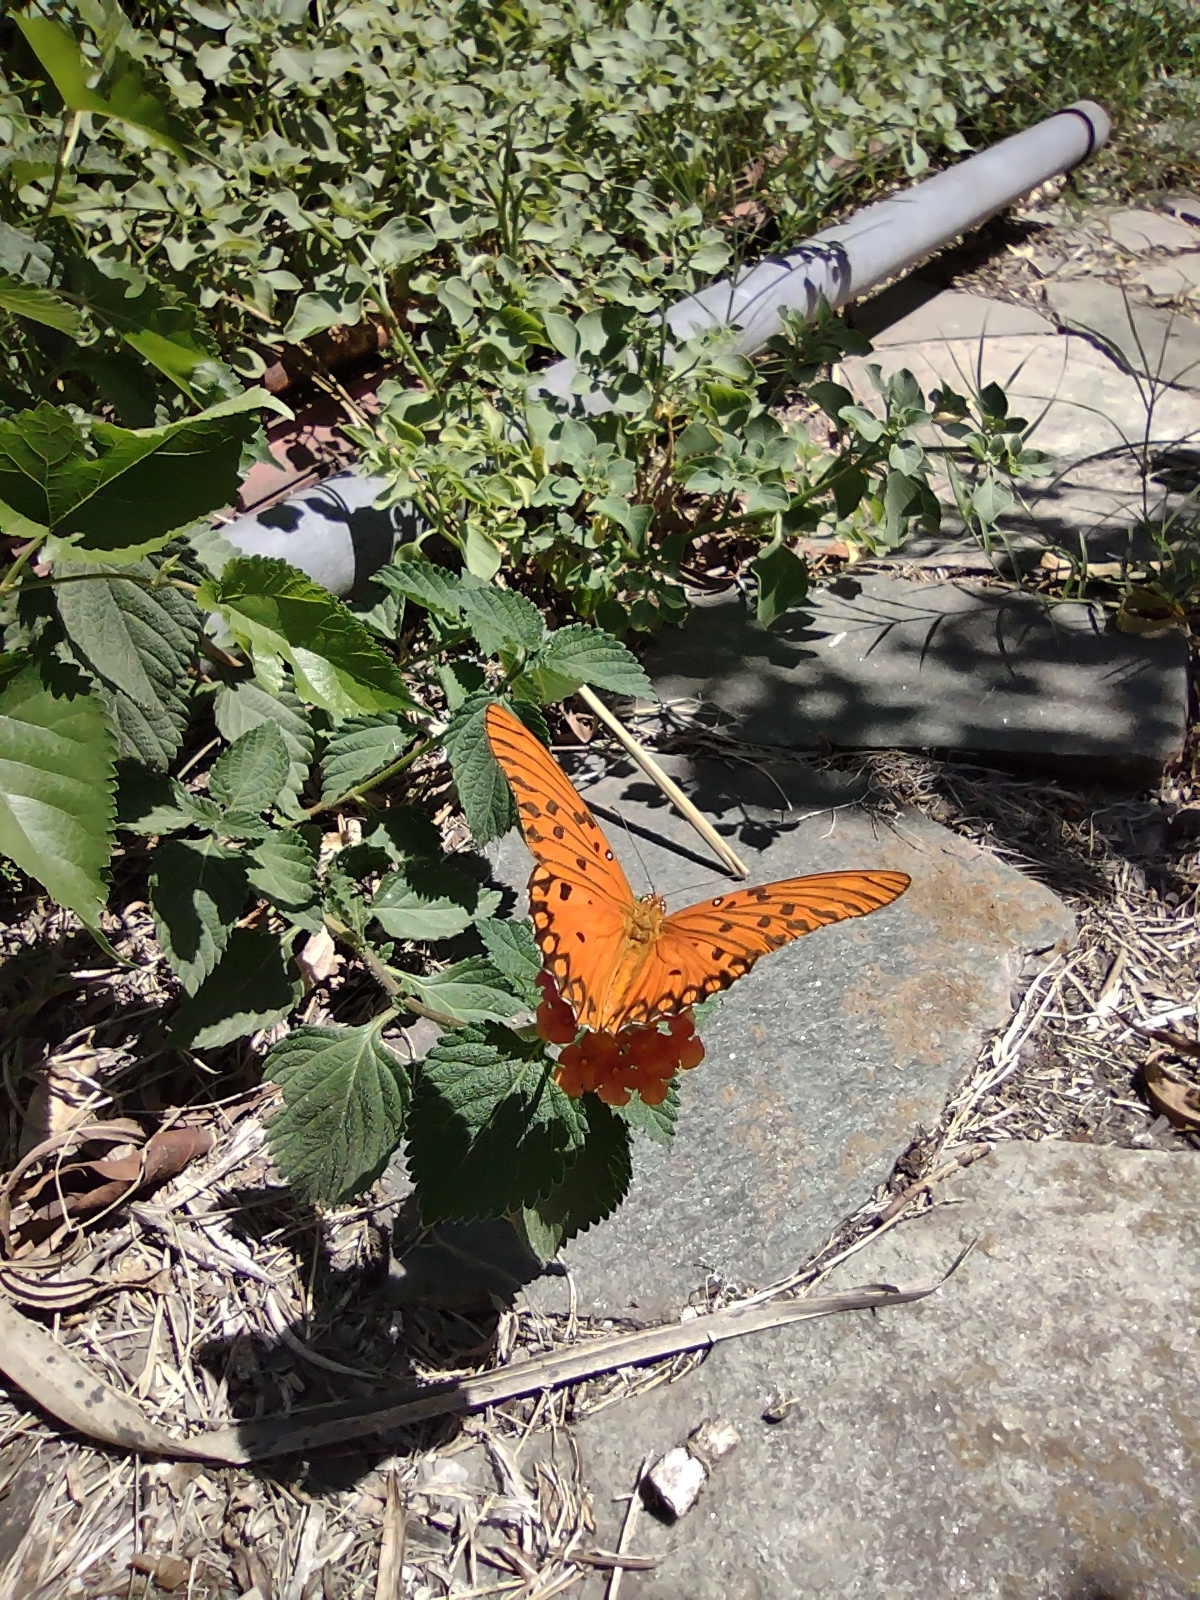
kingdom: Animalia
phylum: Arthropoda
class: Insecta
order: Lepidoptera
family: Nymphalidae
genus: Dione
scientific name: Dione vanillae
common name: Gulf fritillary
